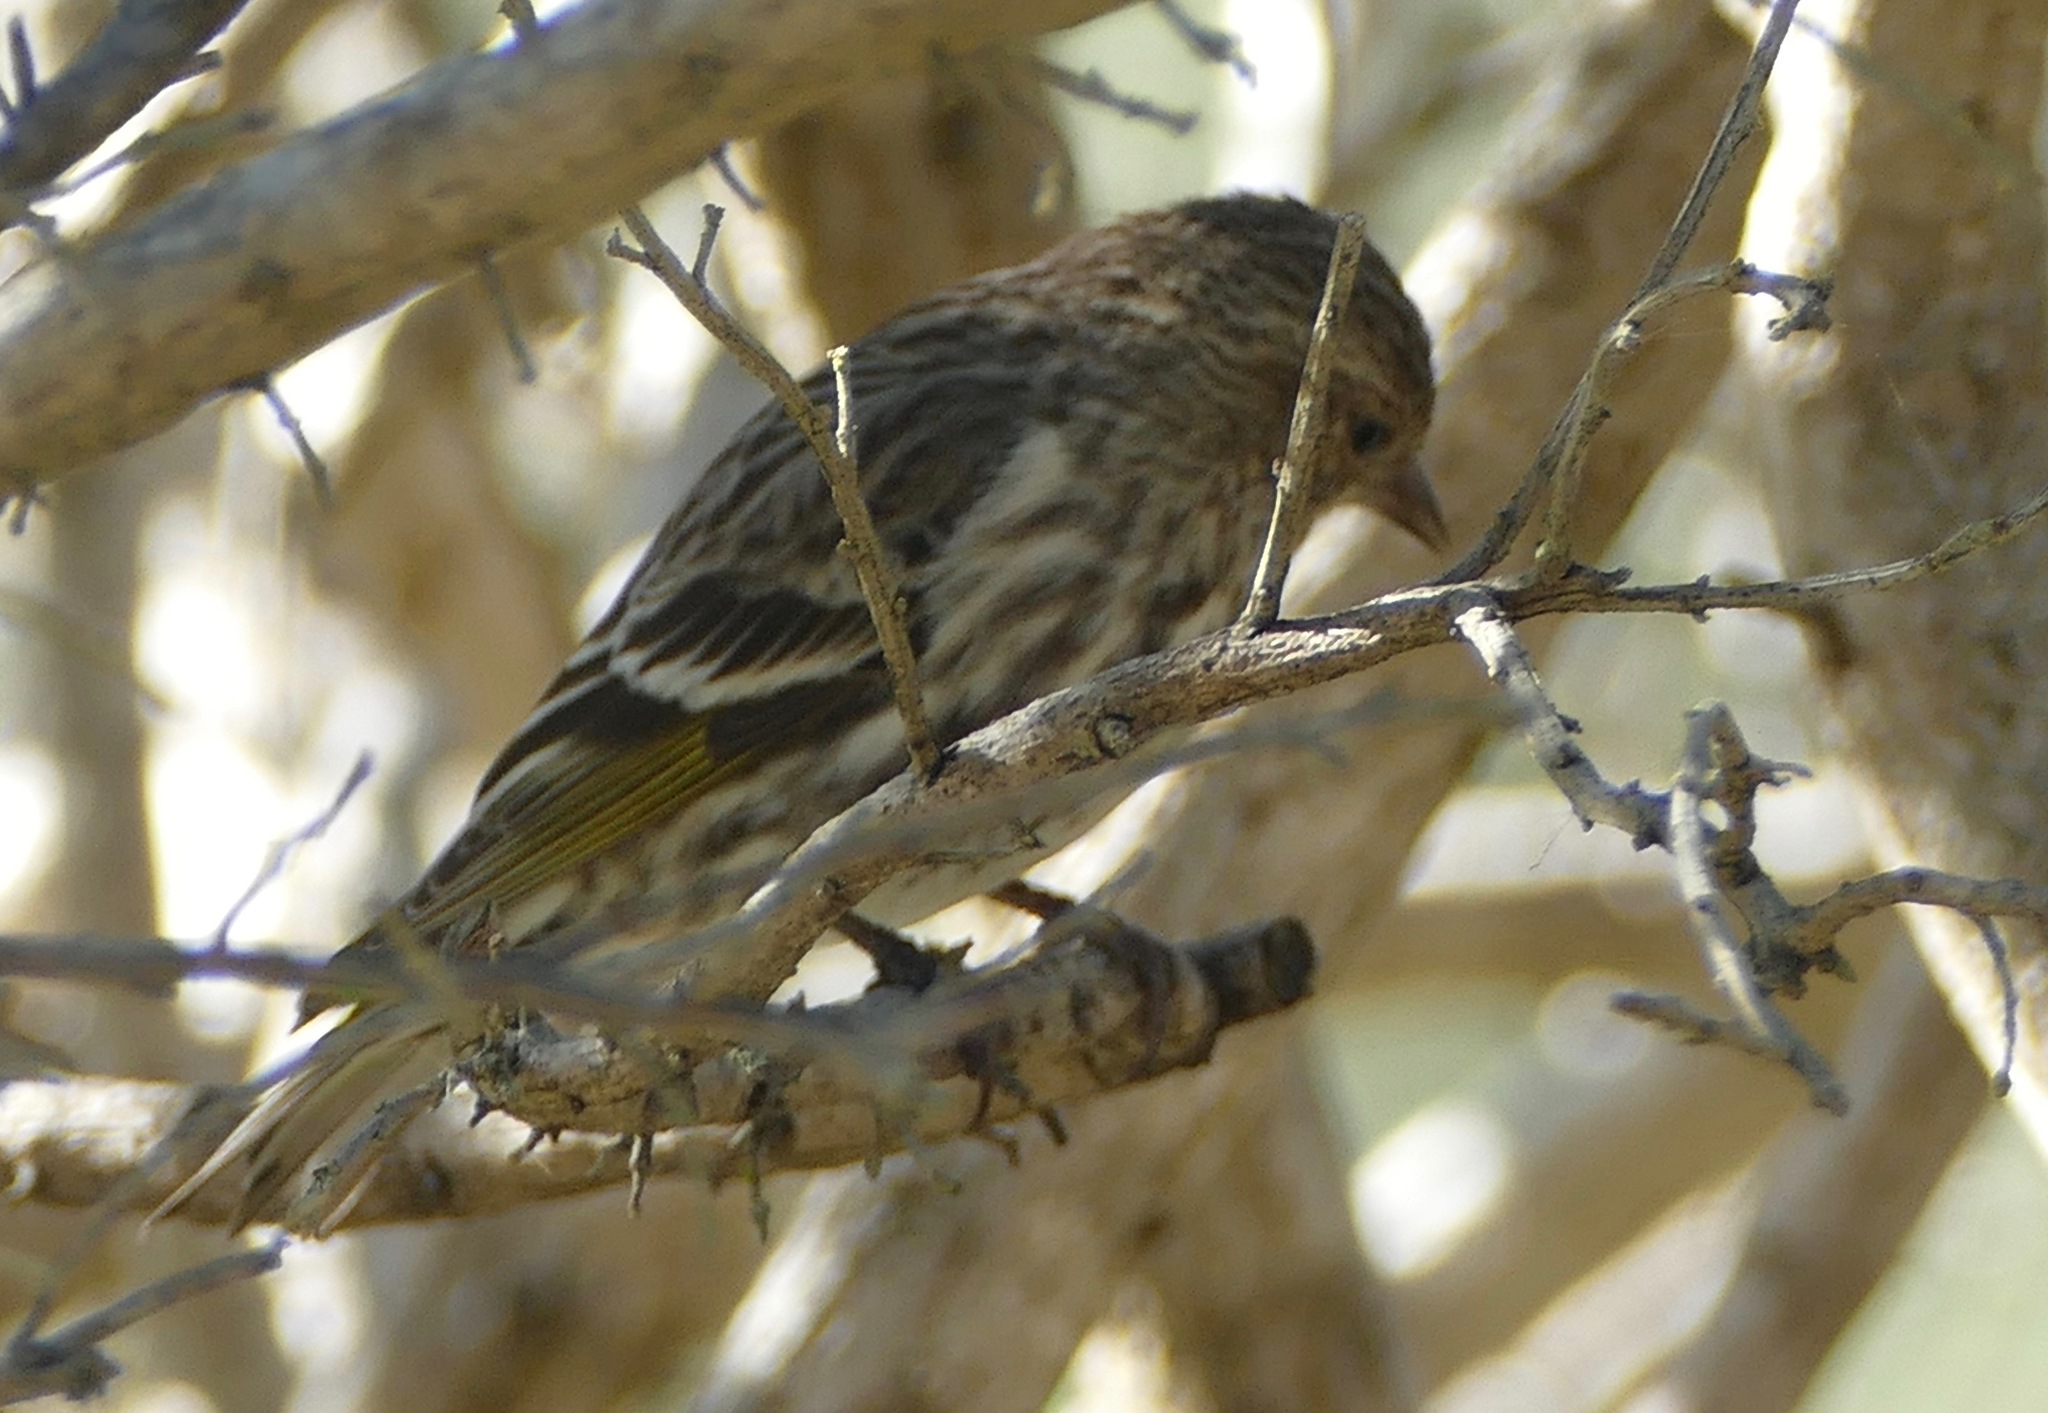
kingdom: Animalia
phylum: Chordata
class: Aves
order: Passeriformes
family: Fringillidae
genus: Spinus
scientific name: Spinus pinus
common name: Pine siskin
